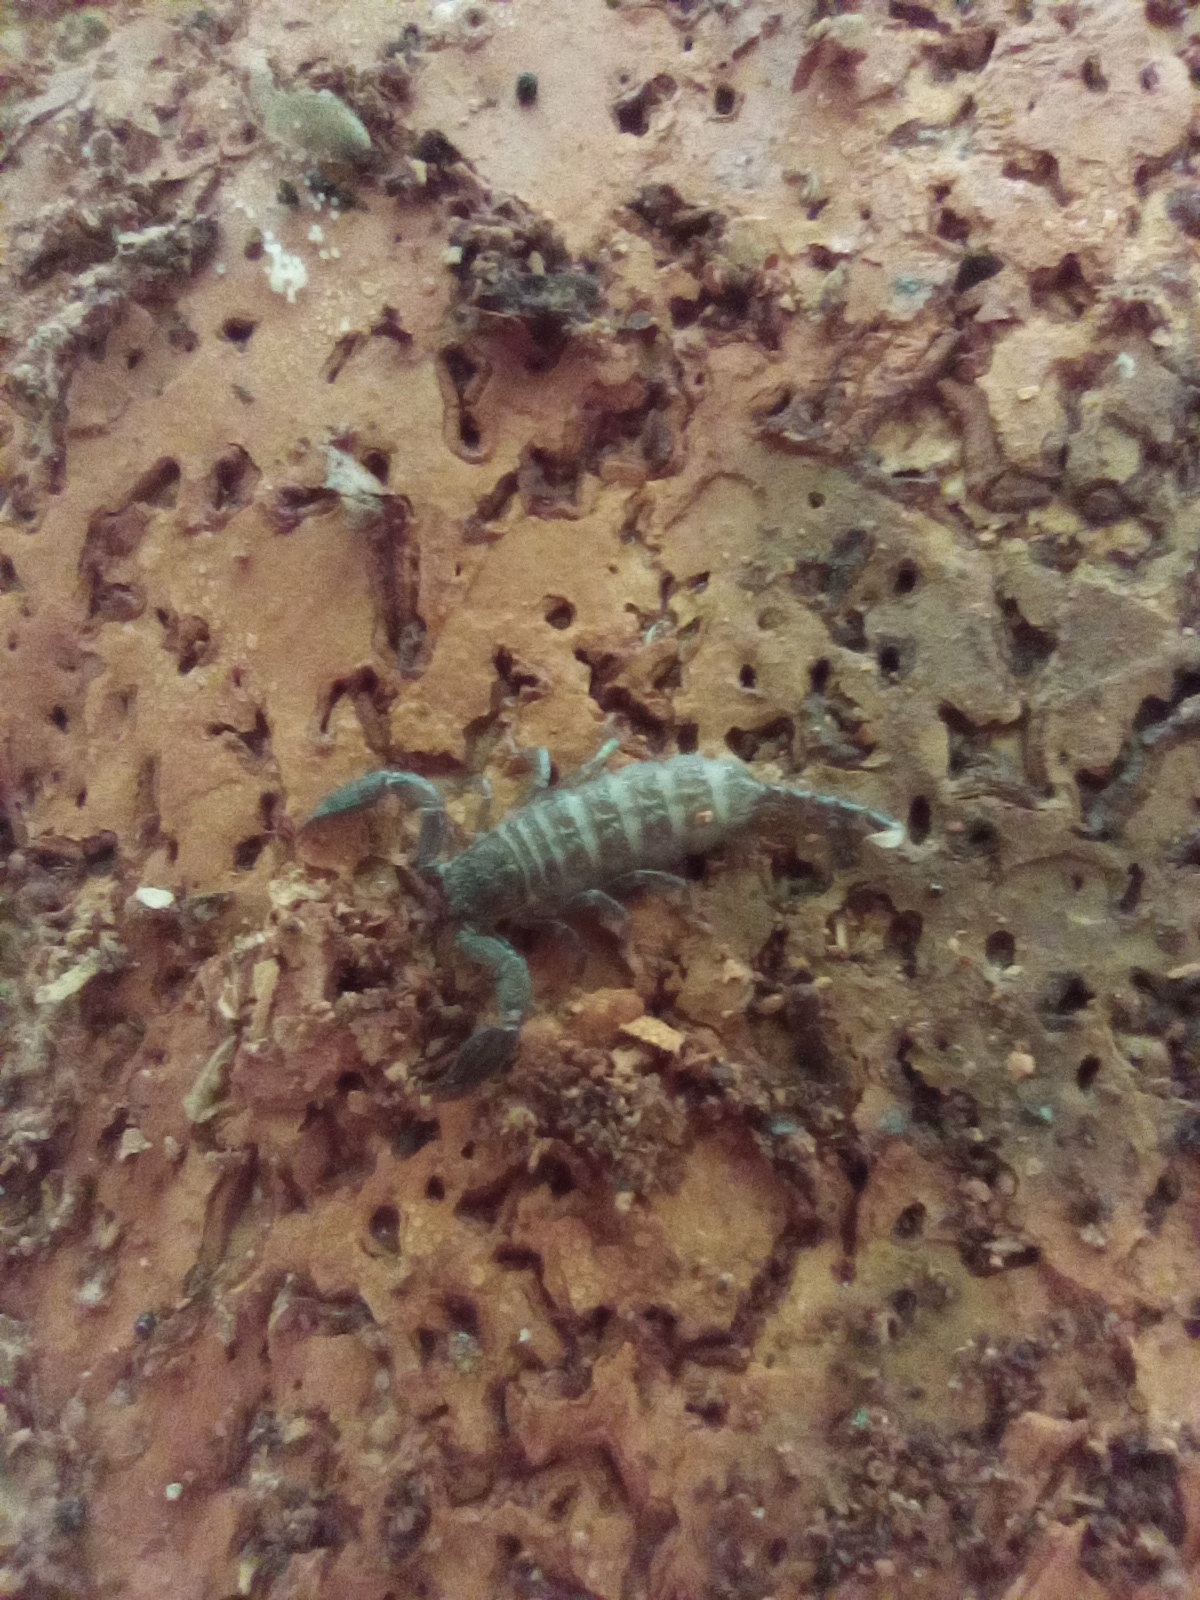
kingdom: Animalia
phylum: Arthropoda
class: Arachnida
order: Scorpiones
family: Hormuridae
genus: Liocheles
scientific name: Liocheles australasiae
